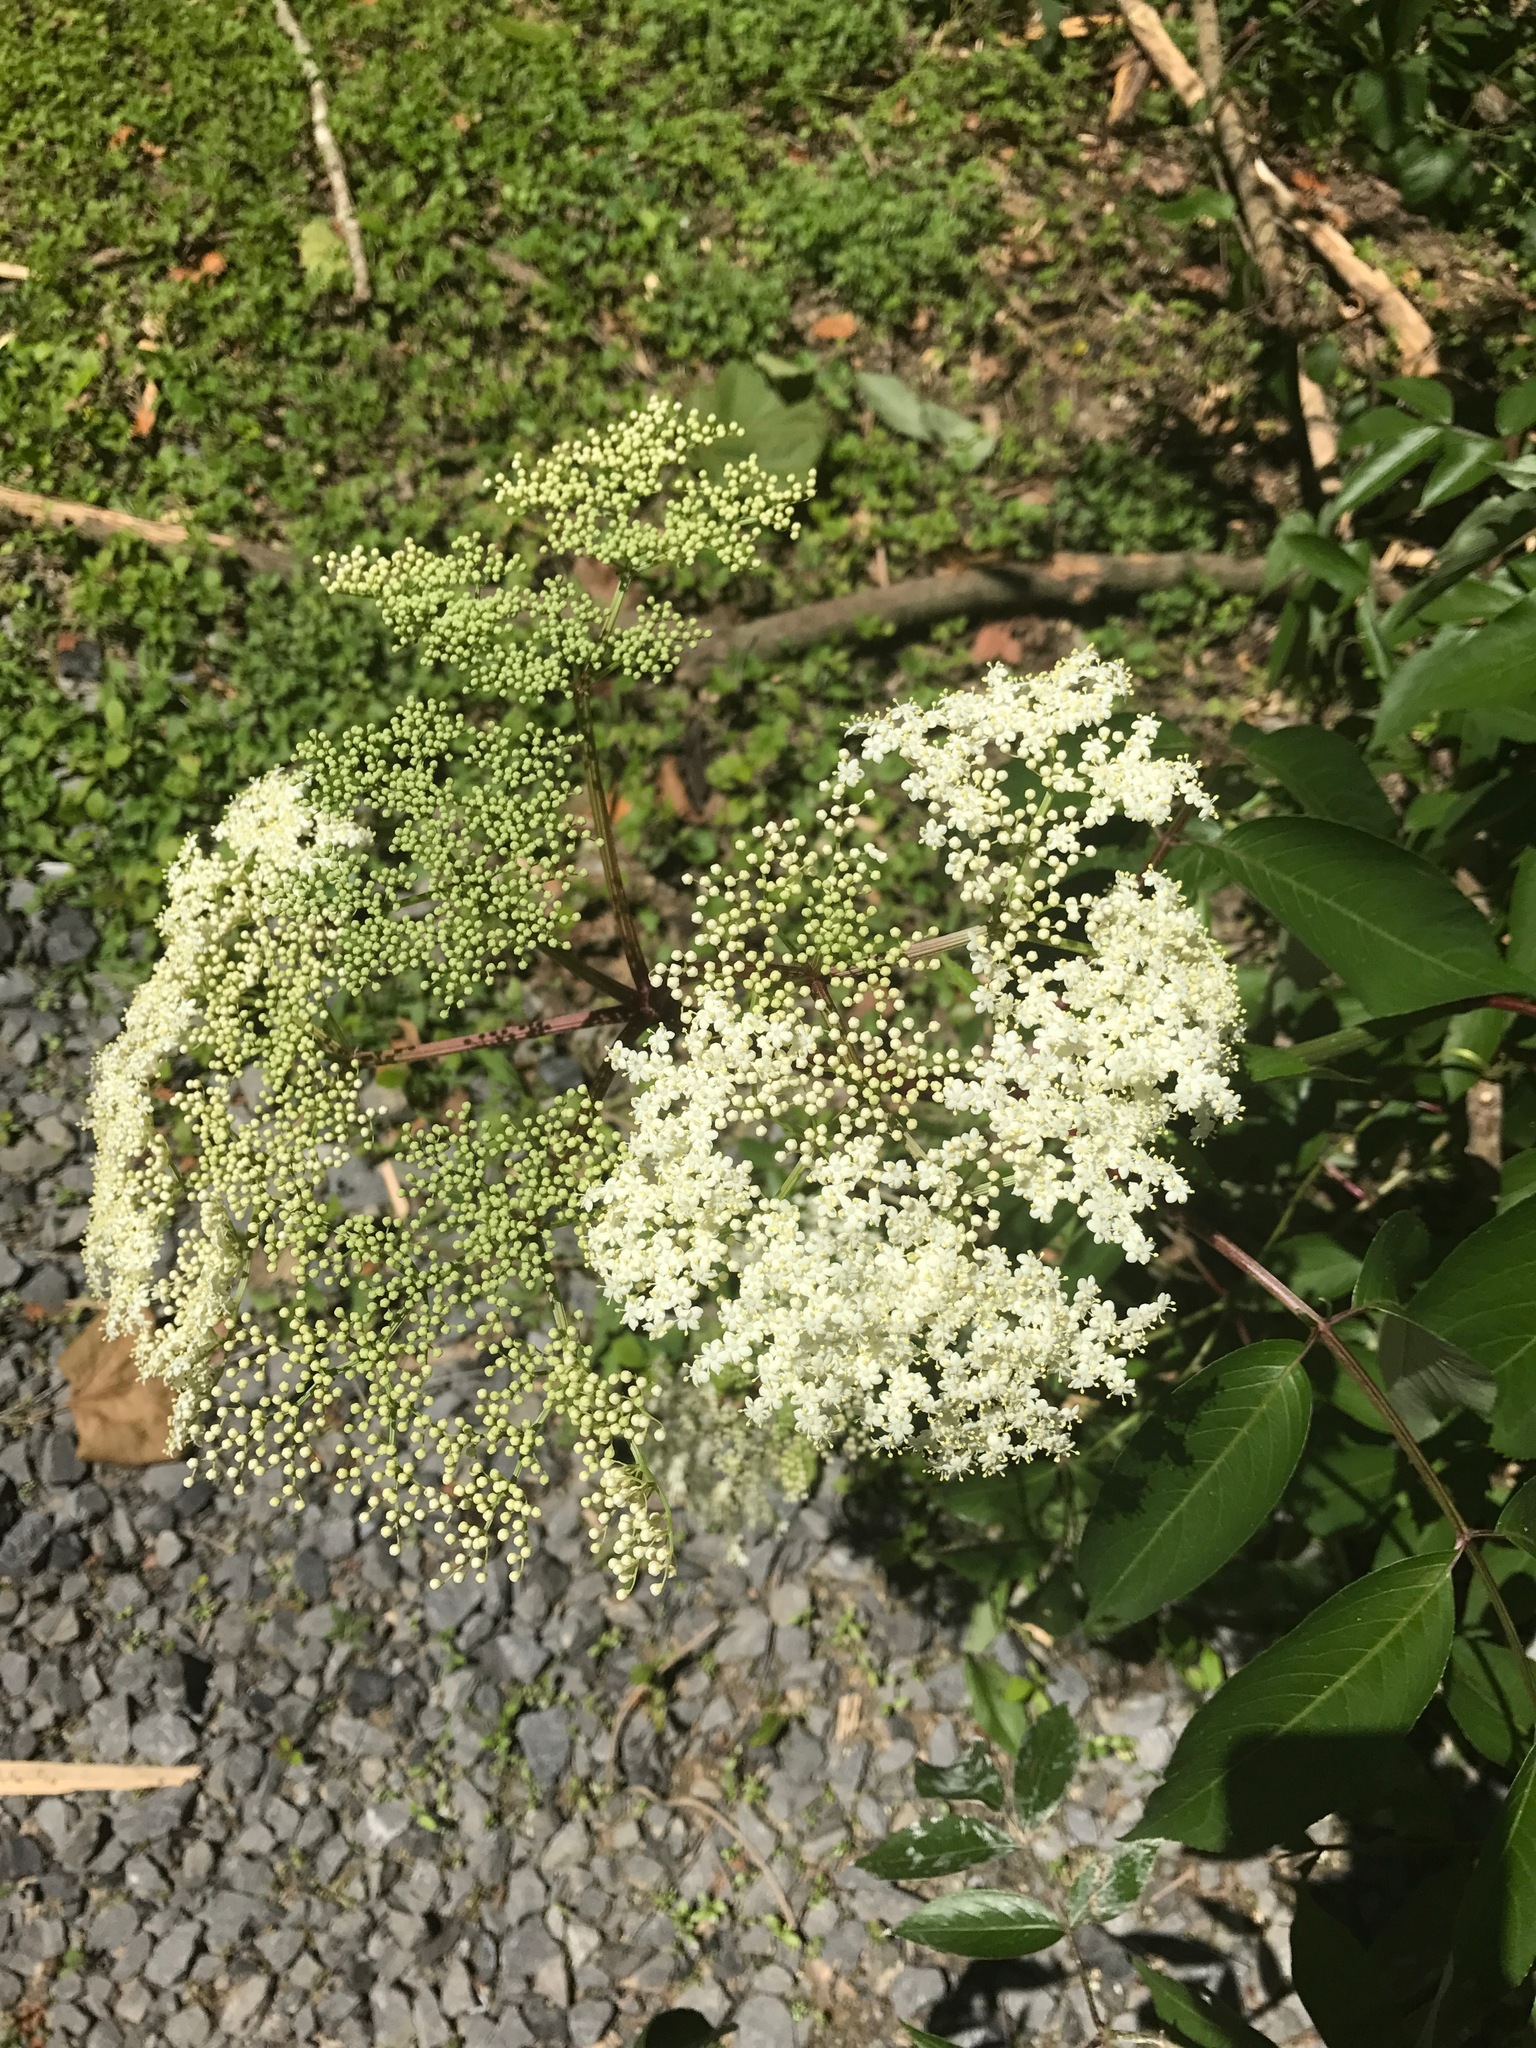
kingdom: Plantae
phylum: Tracheophyta
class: Magnoliopsida
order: Dipsacales
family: Viburnaceae
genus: Sambucus
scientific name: Sambucus canadensis
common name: American elder
